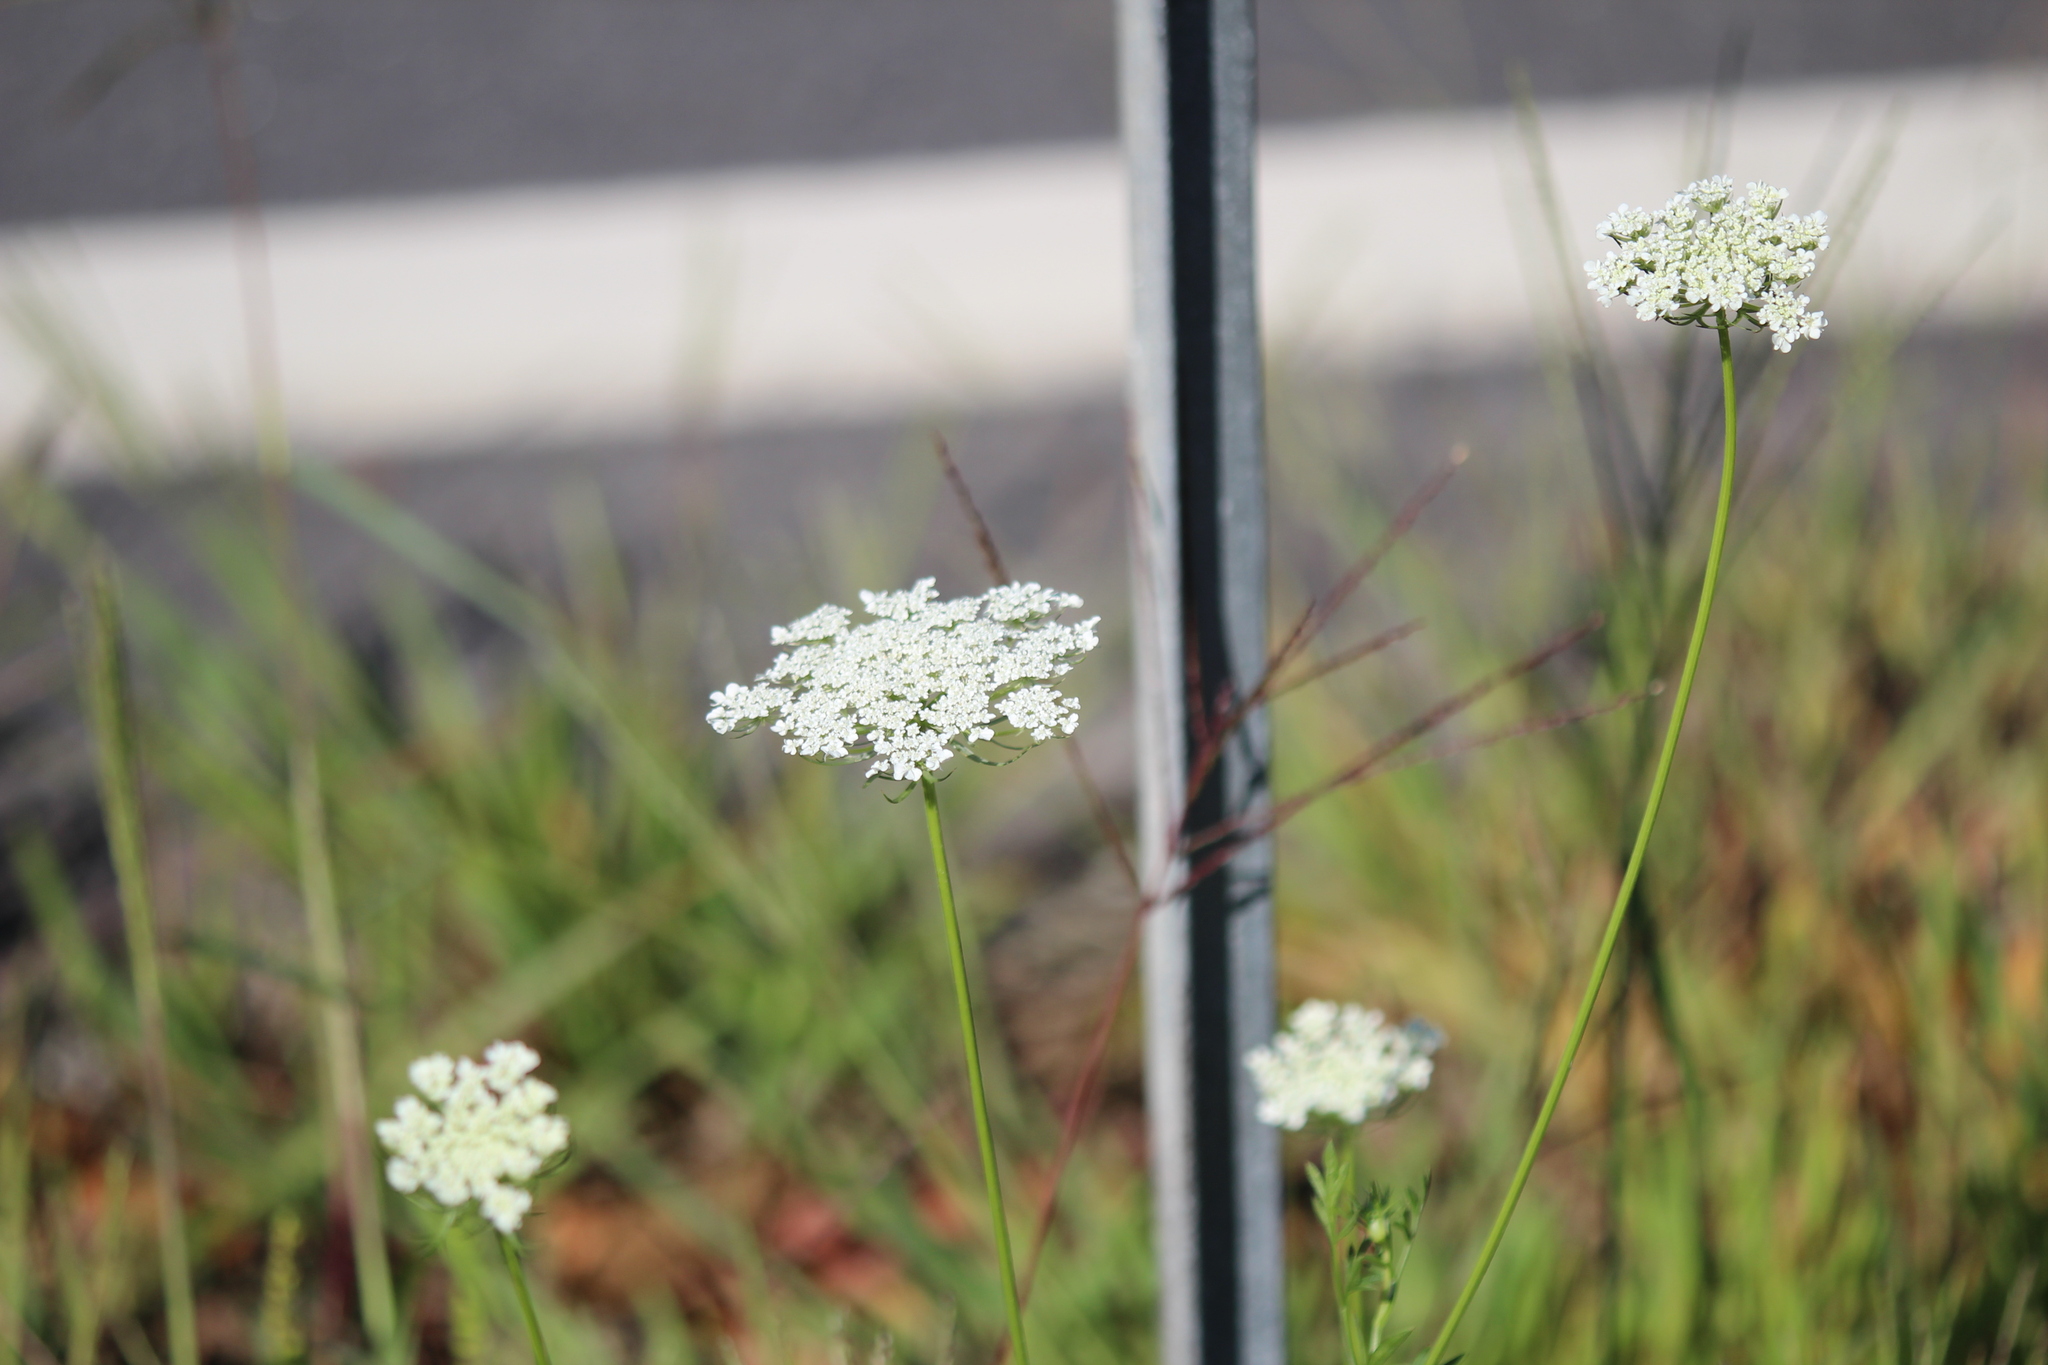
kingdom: Plantae
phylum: Tracheophyta
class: Magnoliopsida
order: Apiales
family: Apiaceae
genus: Daucus
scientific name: Daucus carota
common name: Wild carrot
